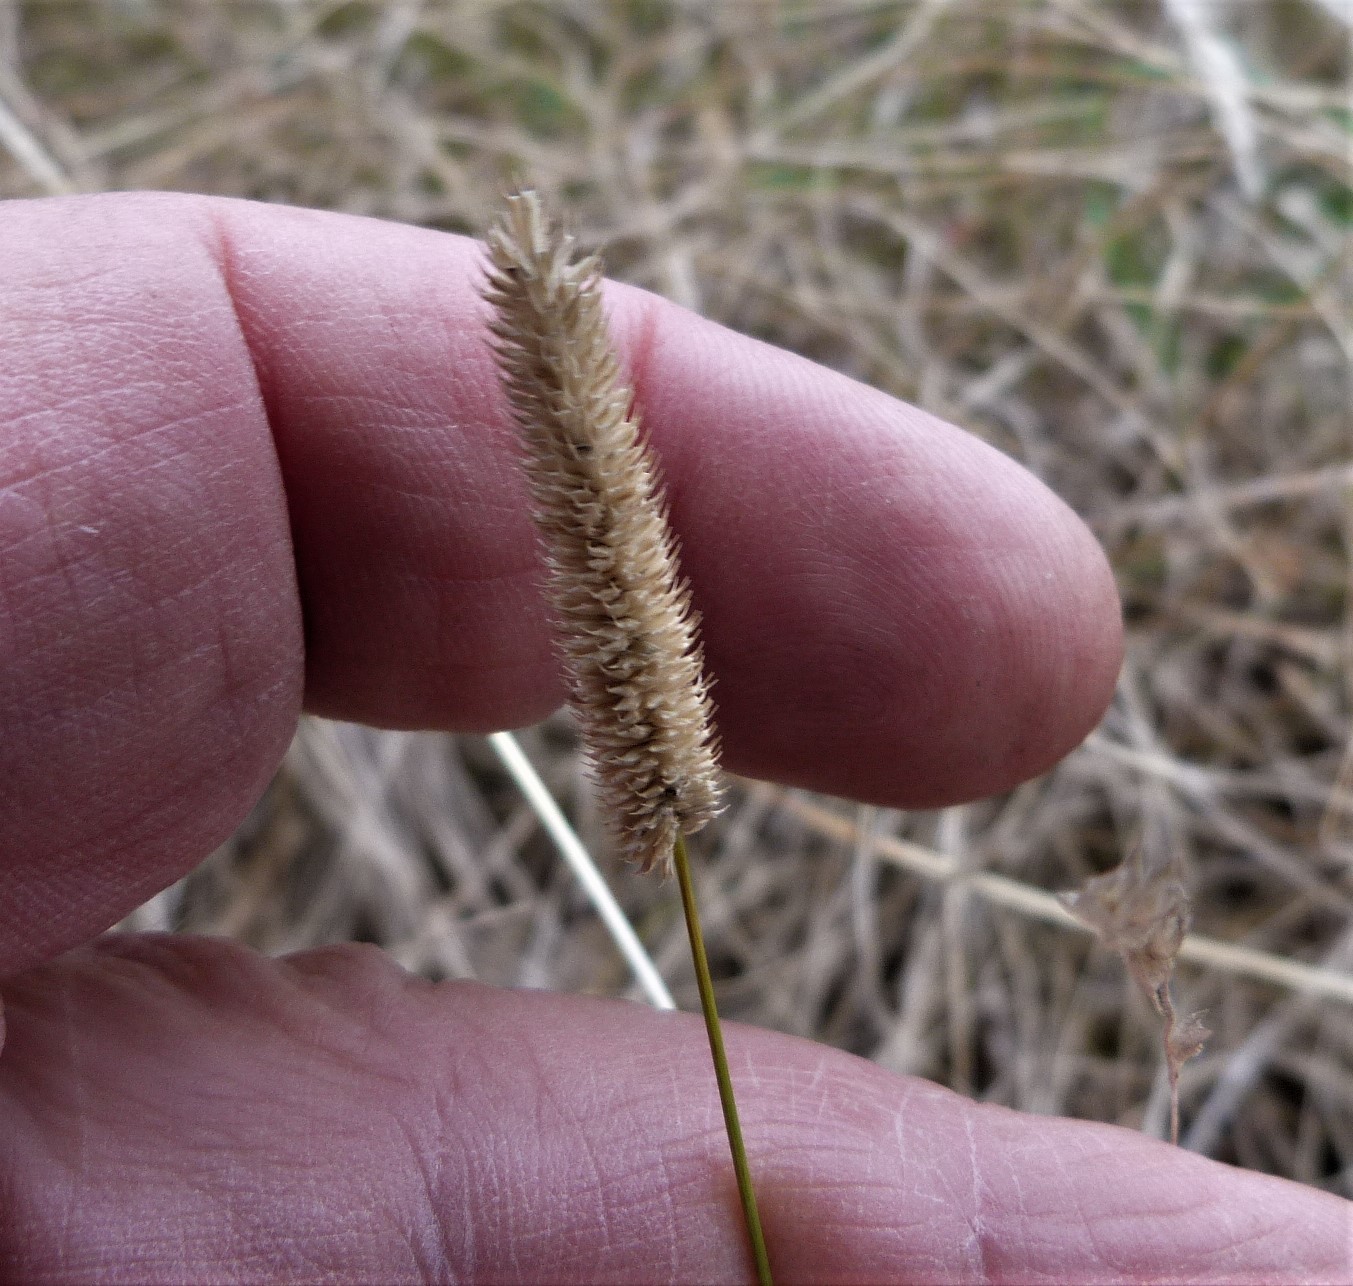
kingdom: Plantae
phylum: Tracheophyta
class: Liliopsida
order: Poales
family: Poaceae
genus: Phleum
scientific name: Phleum pratense
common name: Timothy grass
